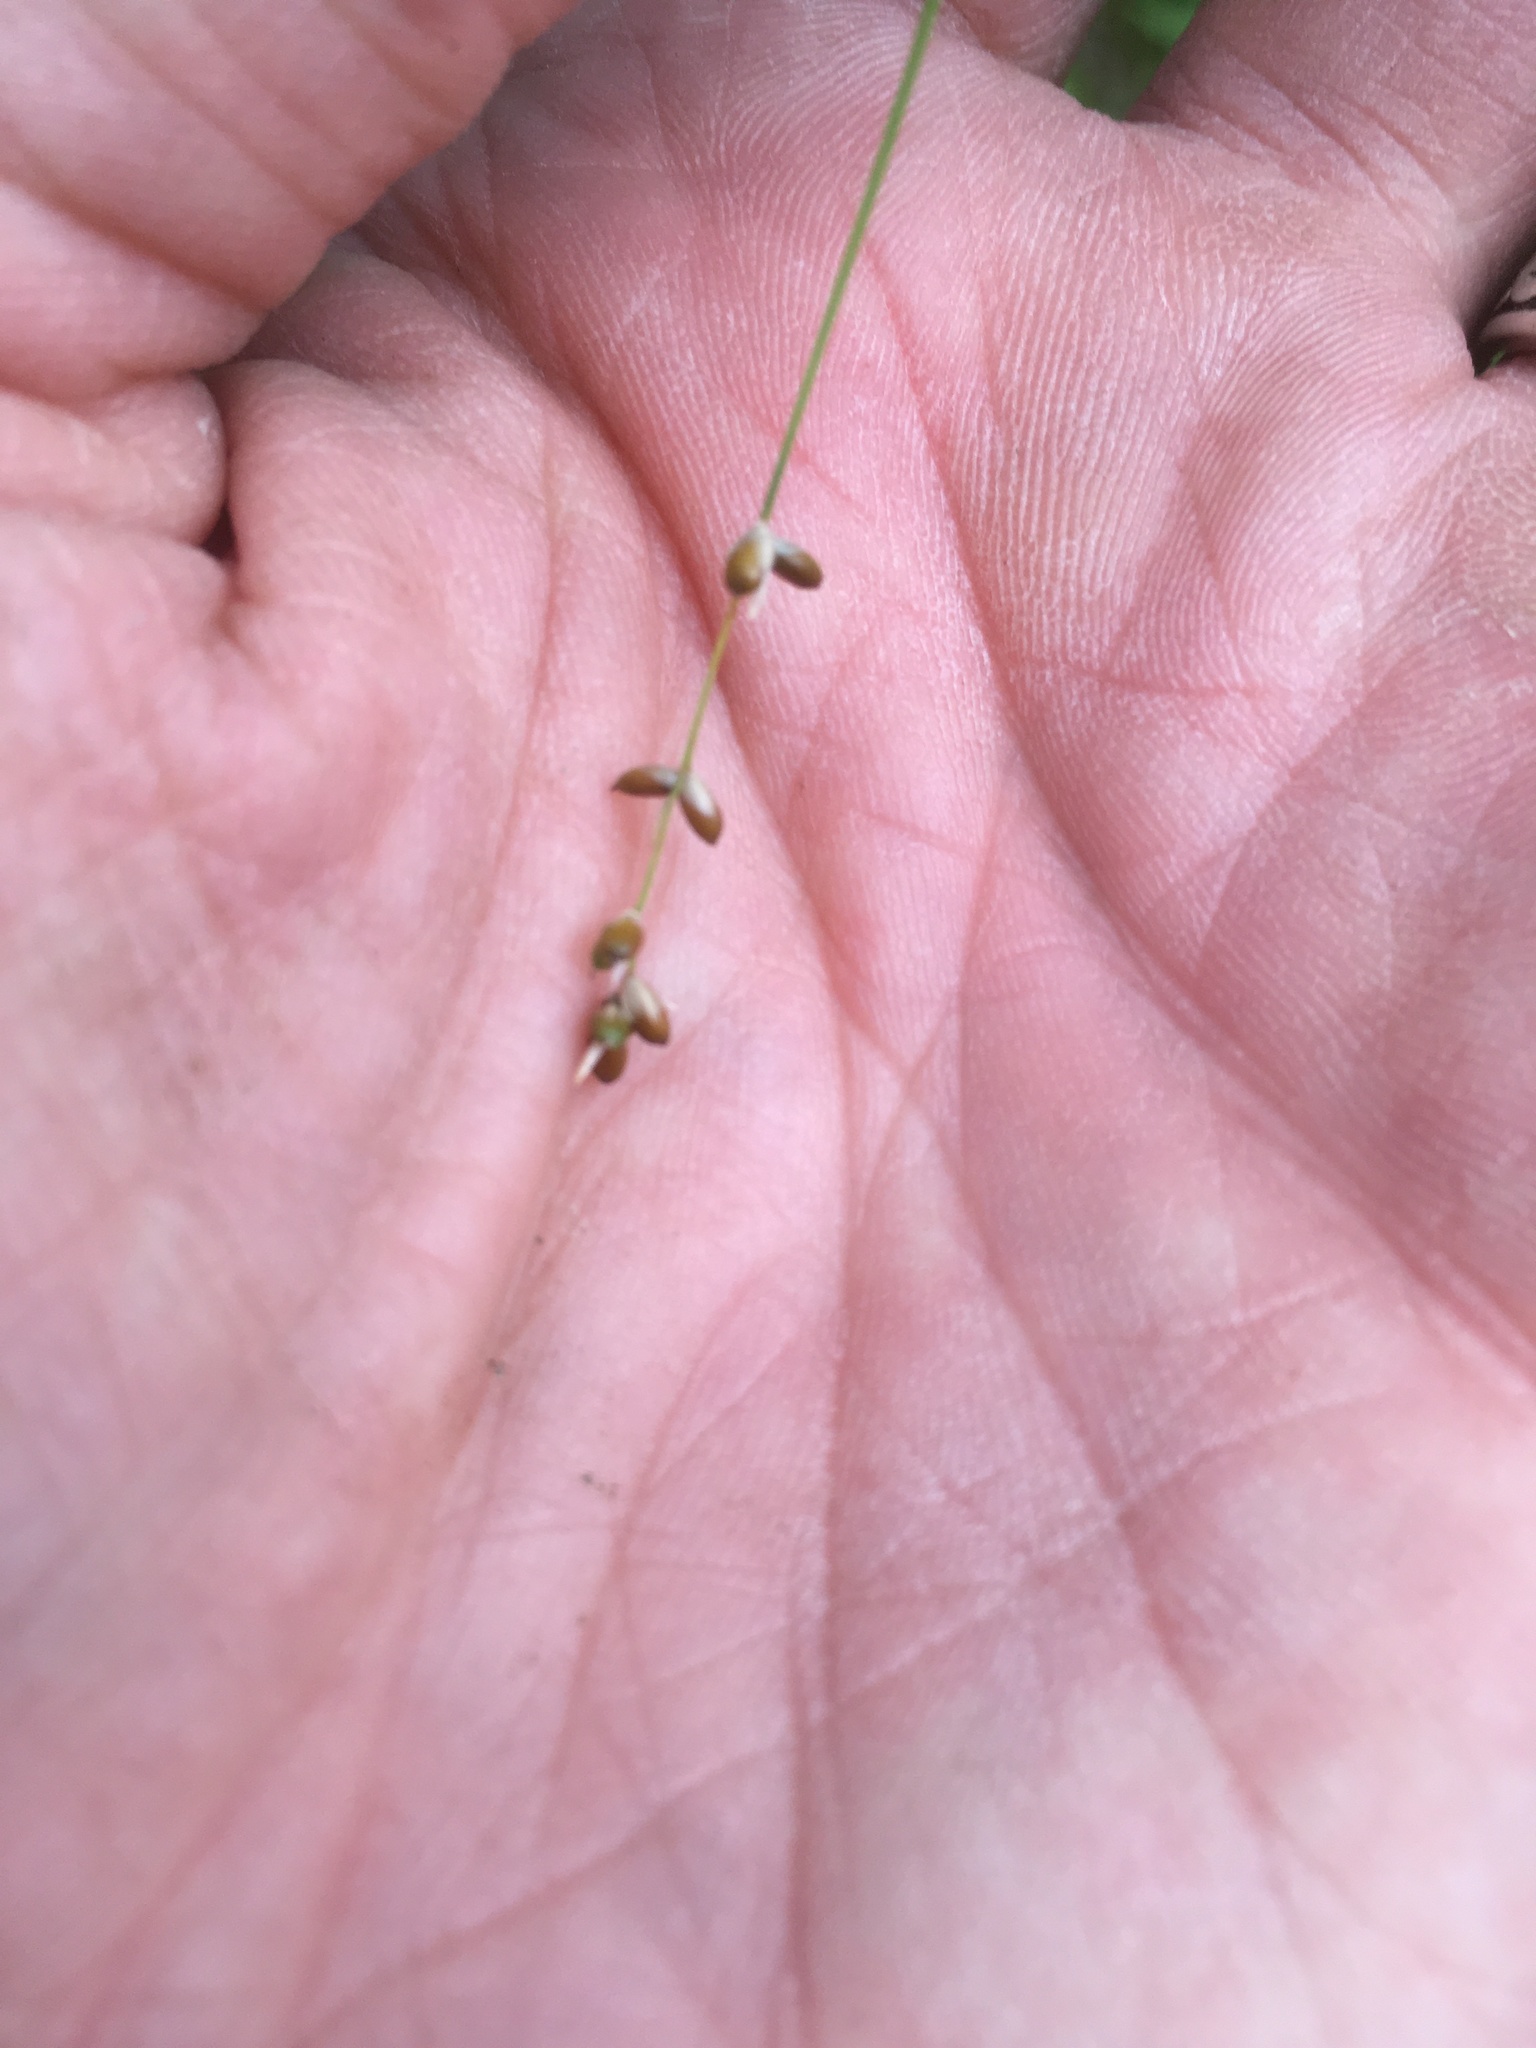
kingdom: Plantae
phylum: Tracheophyta
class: Liliopsida
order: Poales
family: Cyperaceae
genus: Carex
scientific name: Carex disperma
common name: Short-leaved sedge
